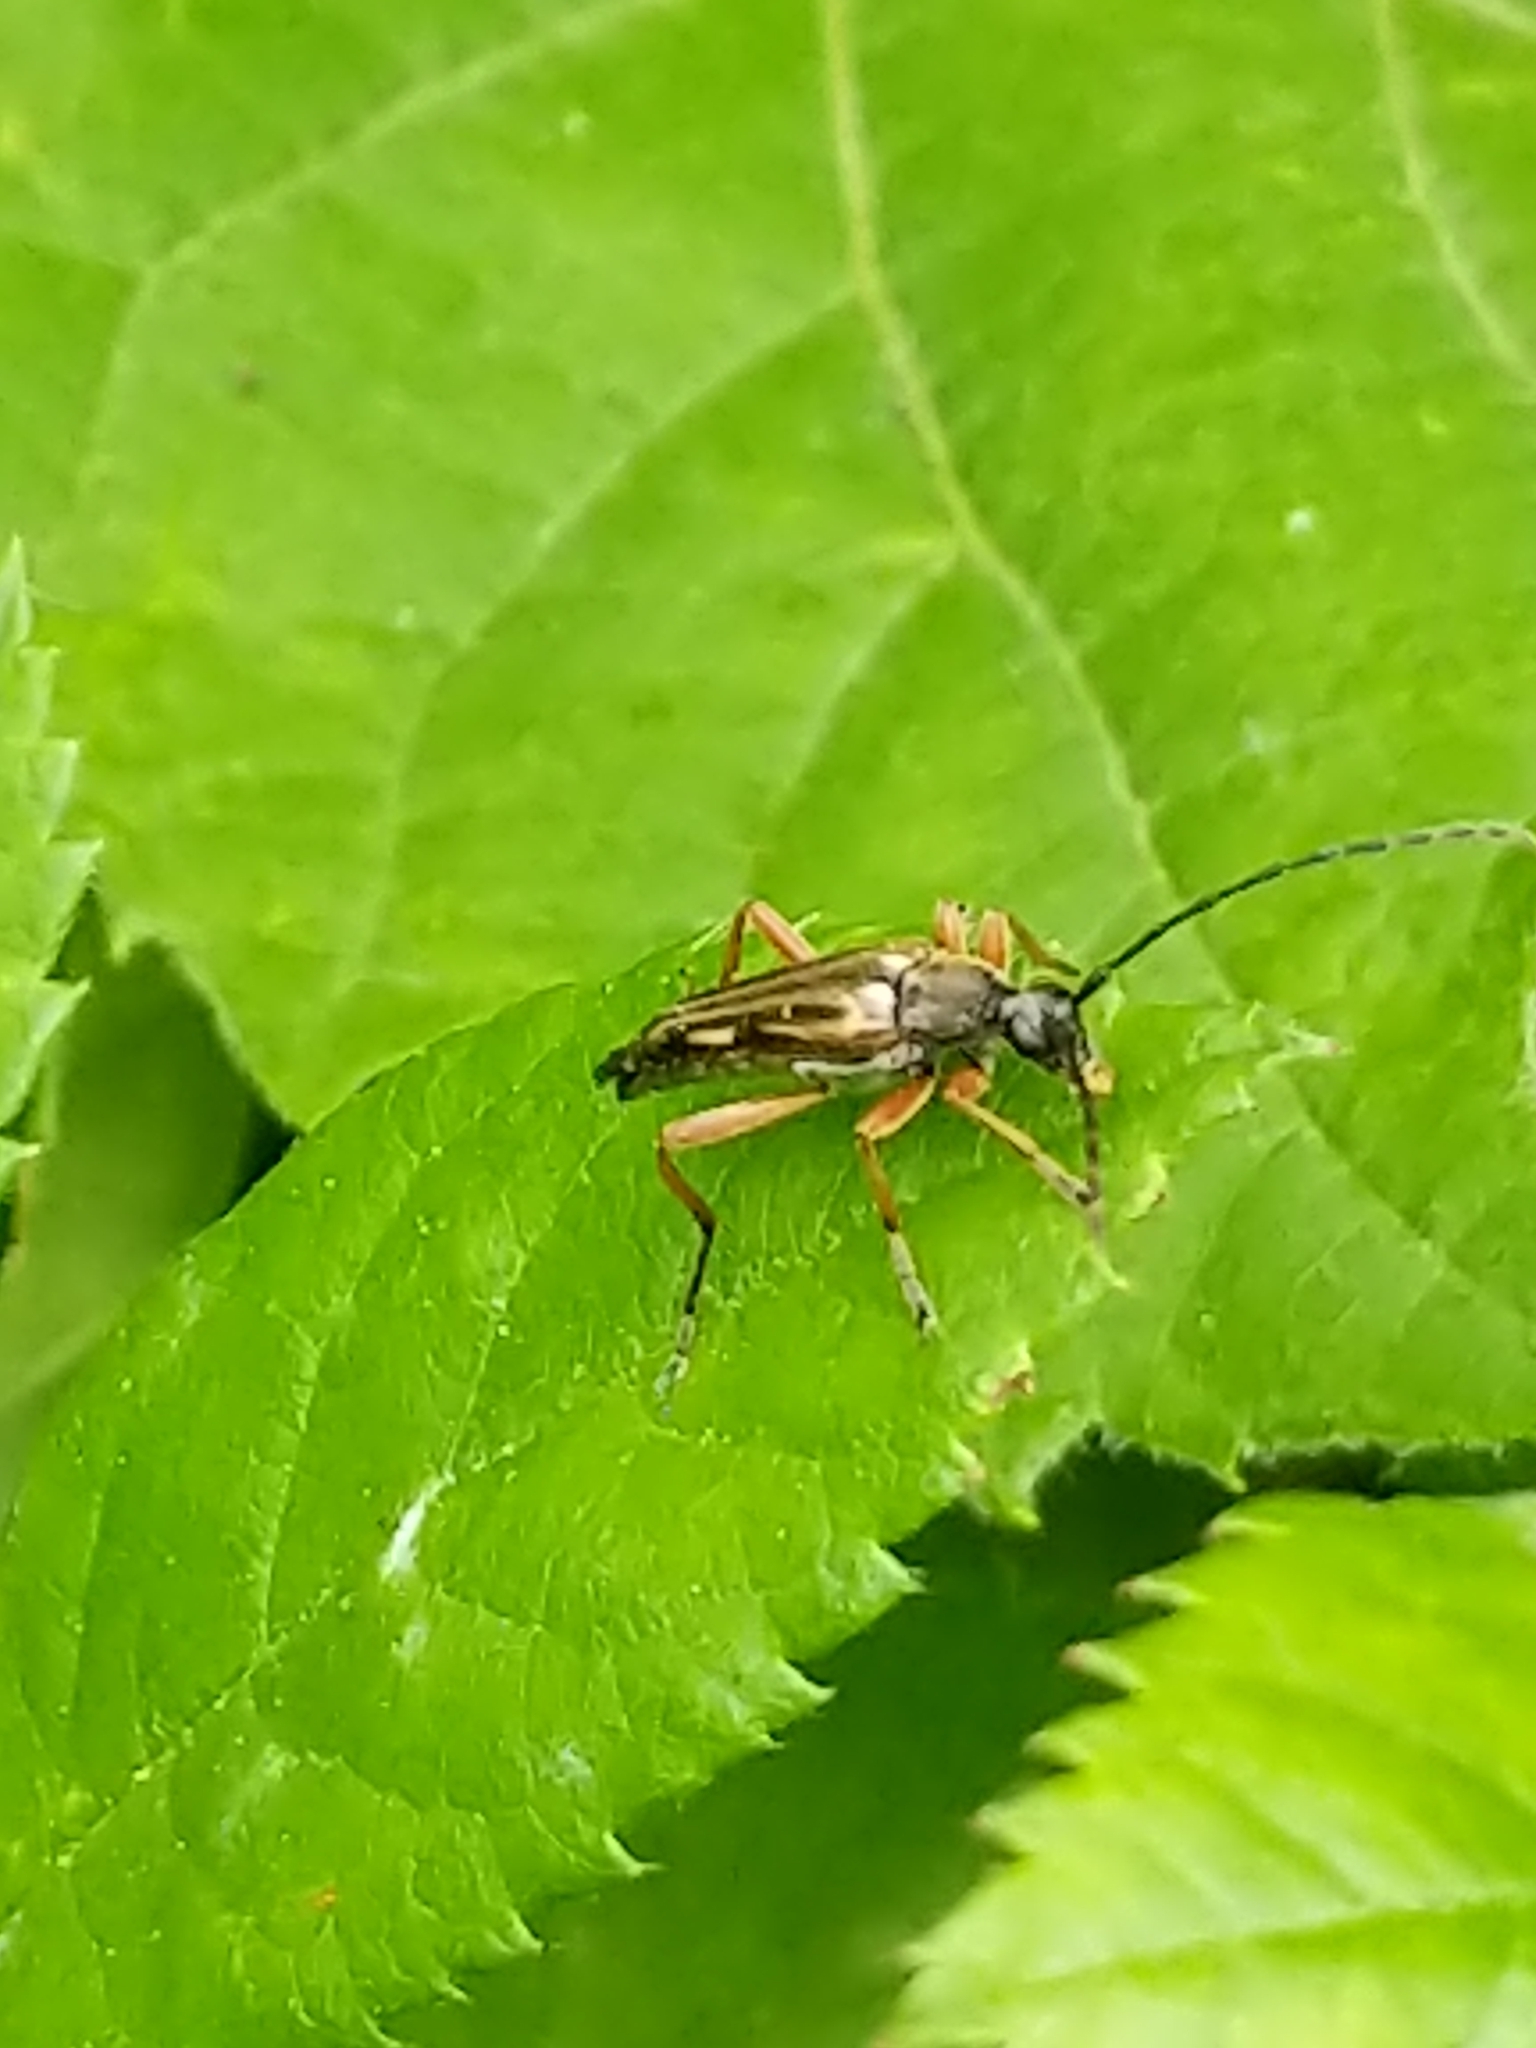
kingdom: Animalia
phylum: Arthropoda
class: Insecta
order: Coleoptera
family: Cerambycidae
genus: Analeptura
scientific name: Analeptura lineola
